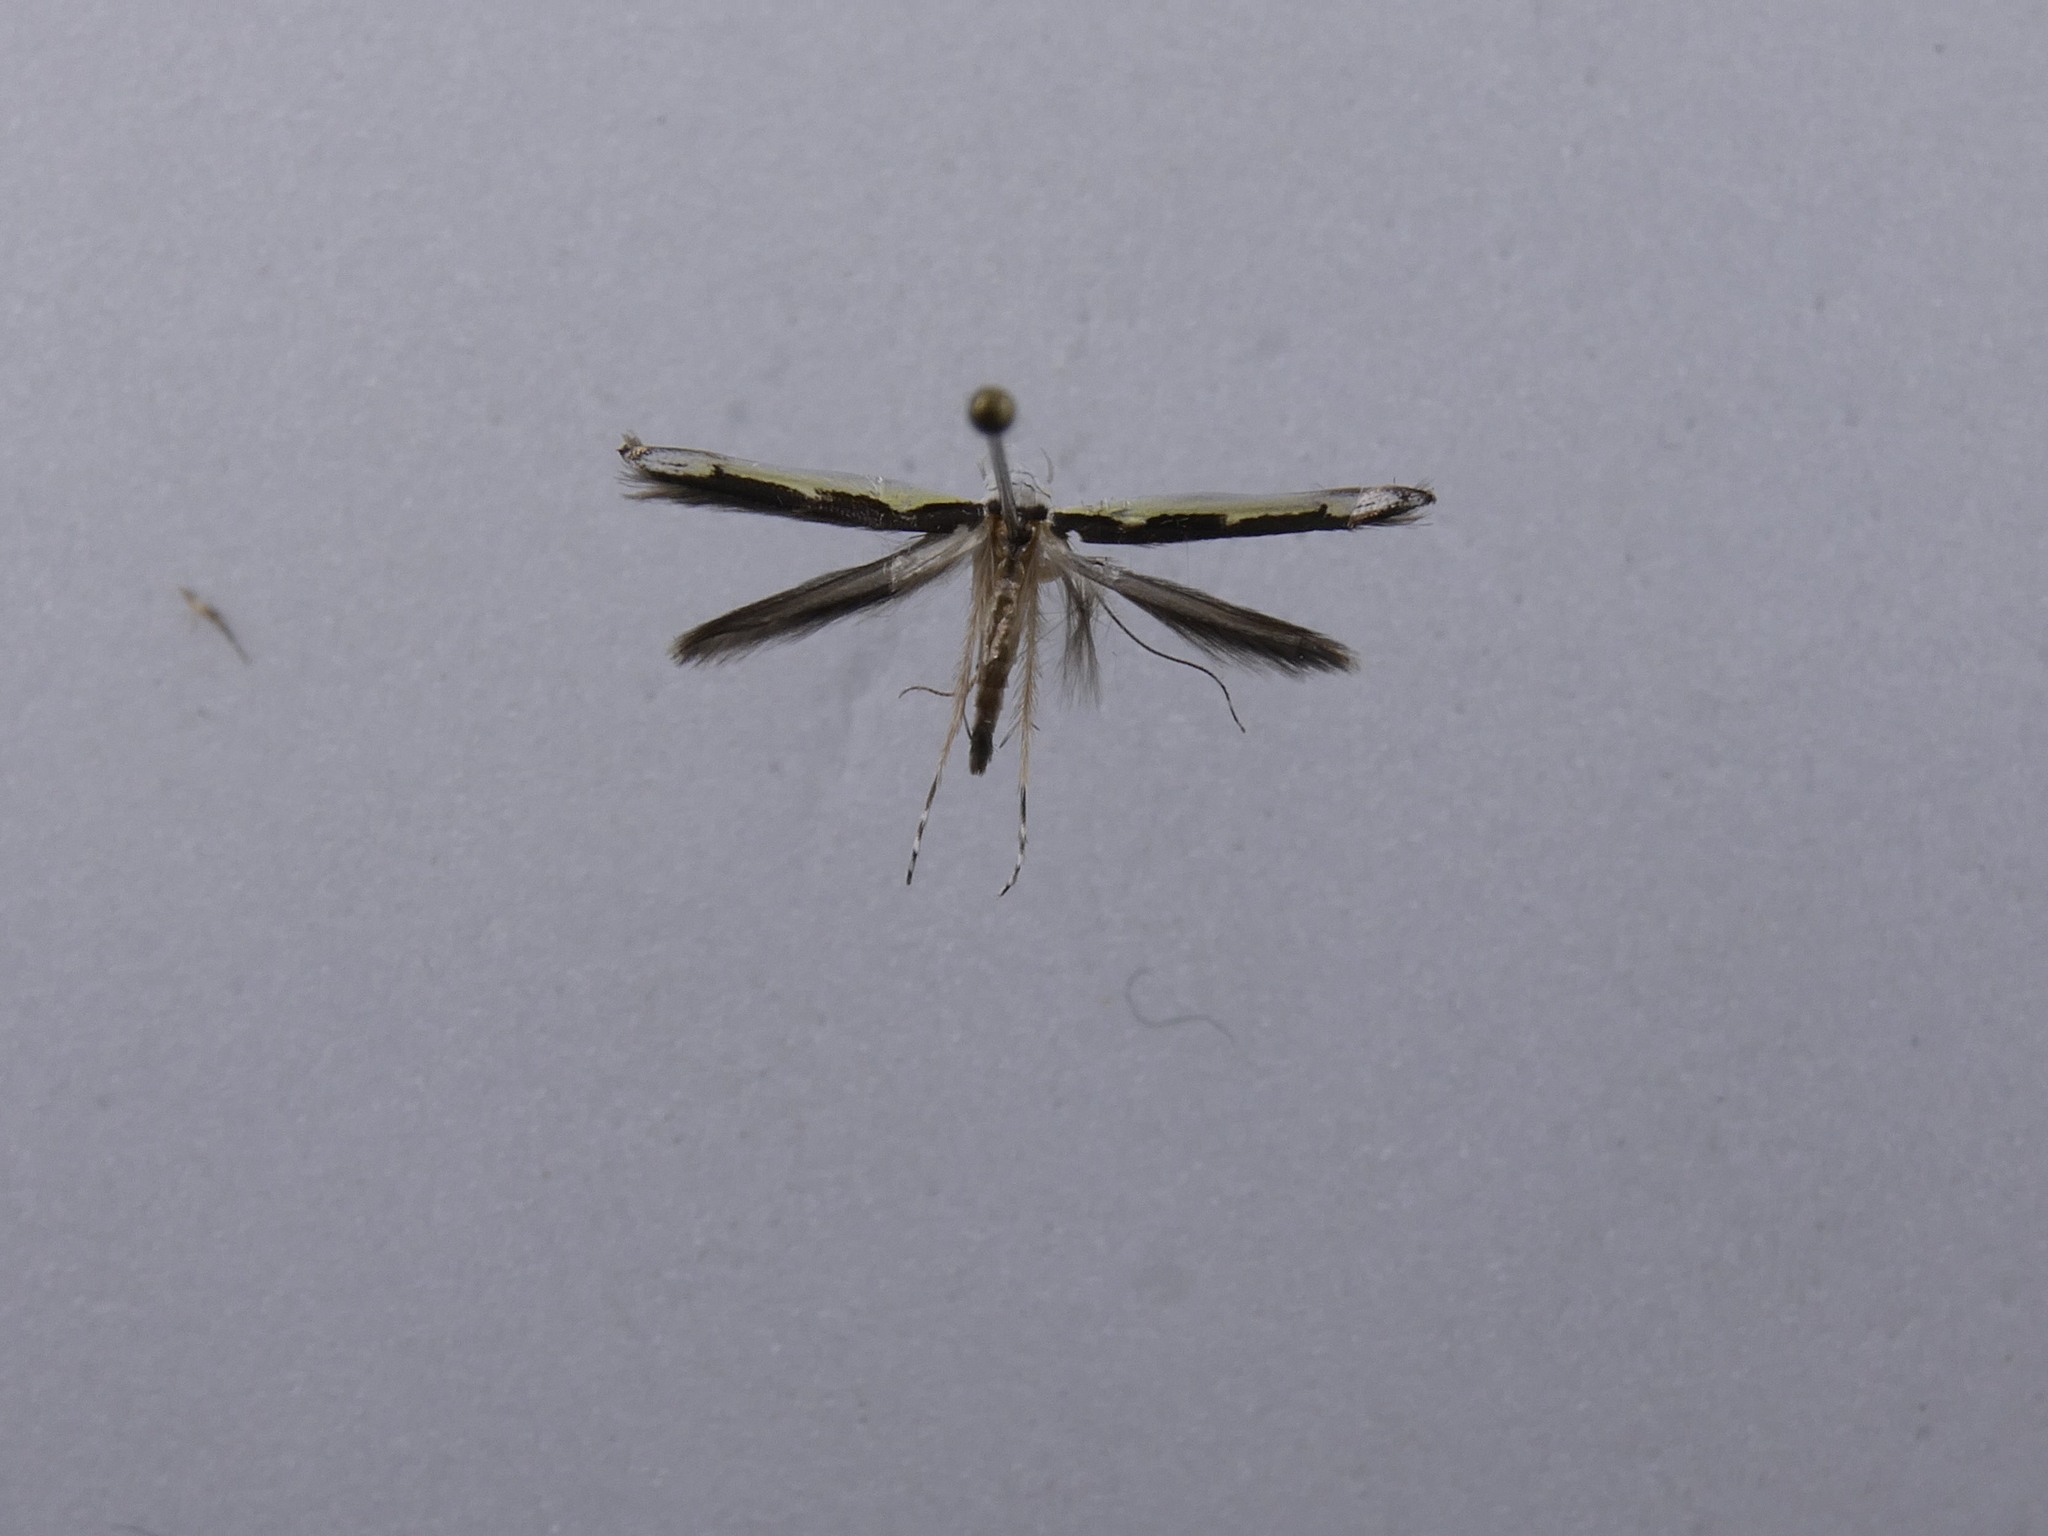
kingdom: Animalia
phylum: Arthropoda
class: Insecta
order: Lepidoptera
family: Roeslerstammiidae
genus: Vanicela
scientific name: Vanicela disjunctella
